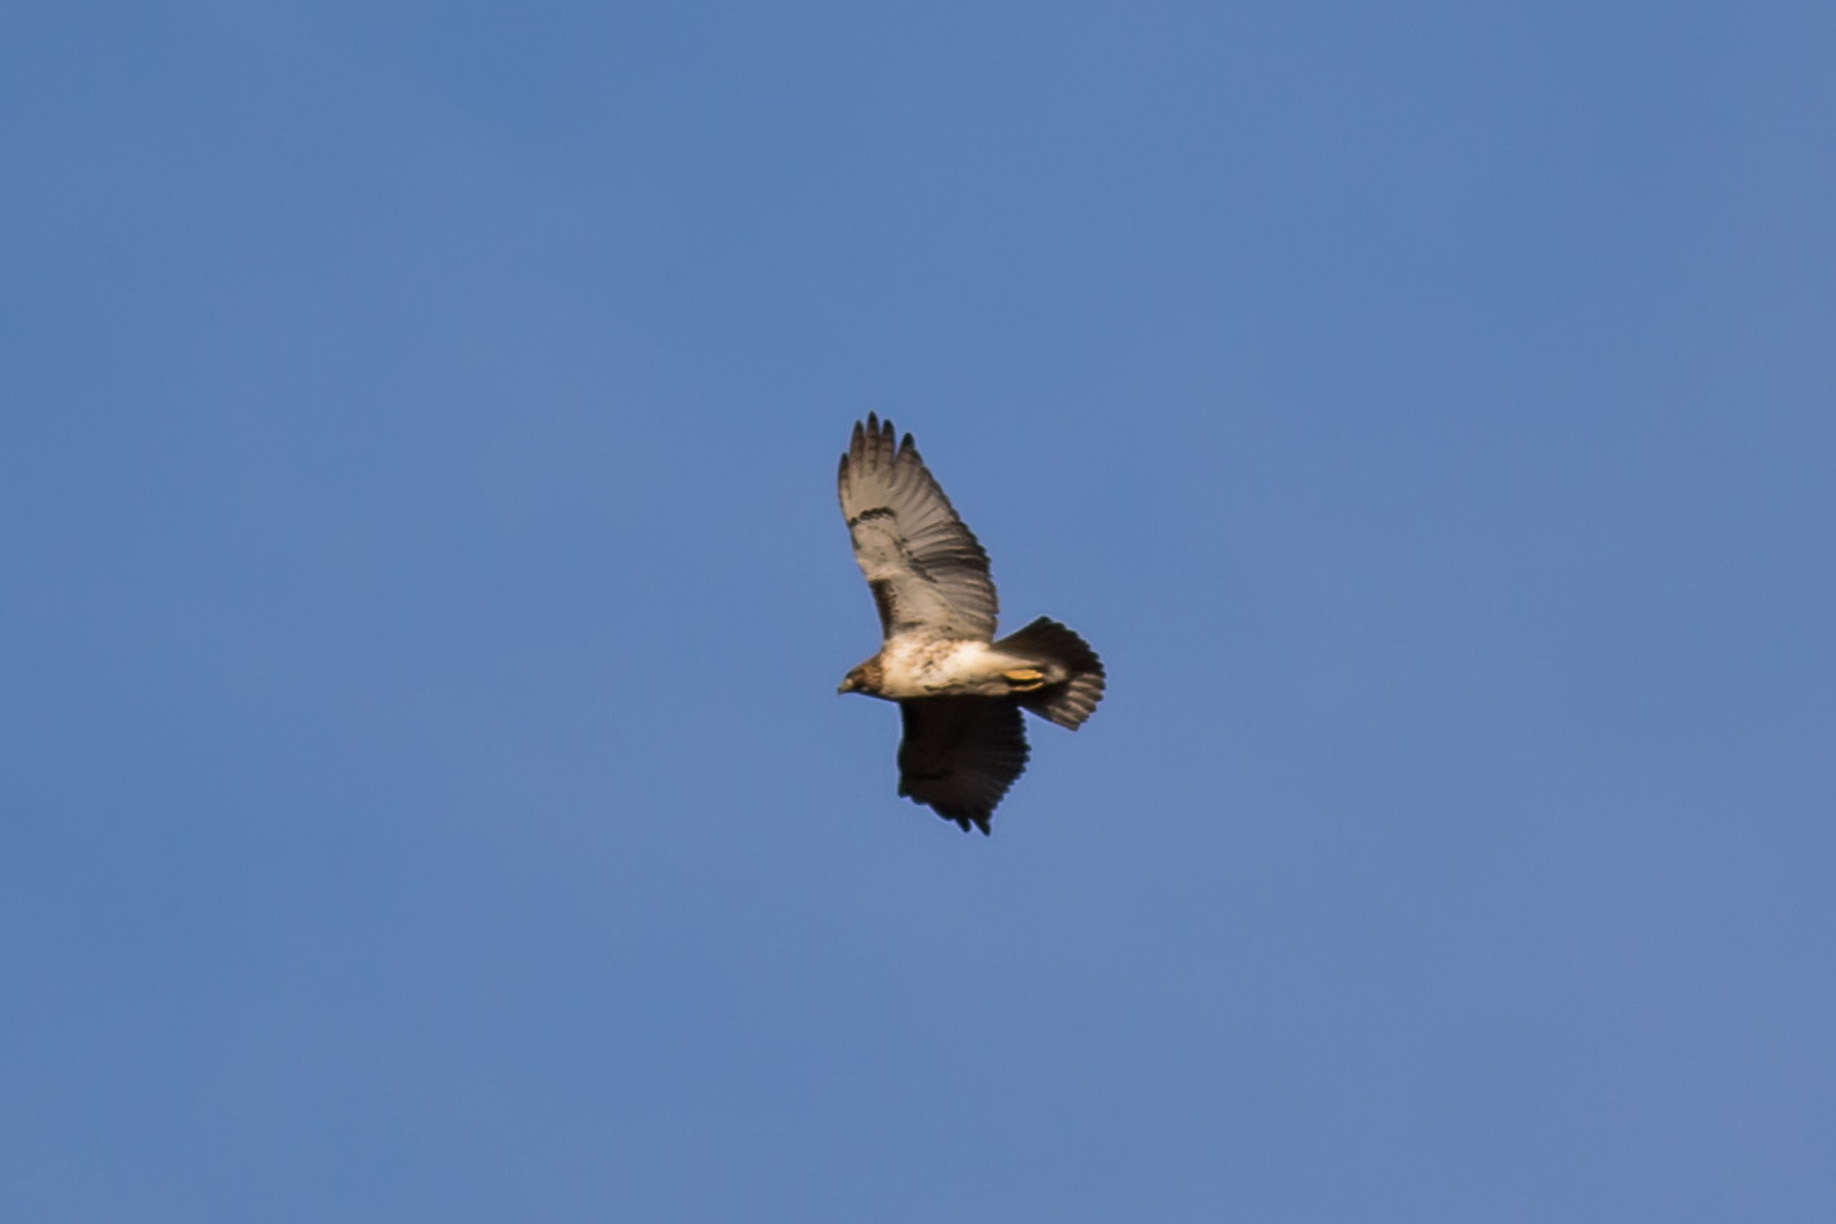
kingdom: Animalia
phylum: Chordata
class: Aves
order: Accipitriformes
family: Accipitridae
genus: Buteo
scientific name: Buteo jamaicensis
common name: Red-tailed hawk
